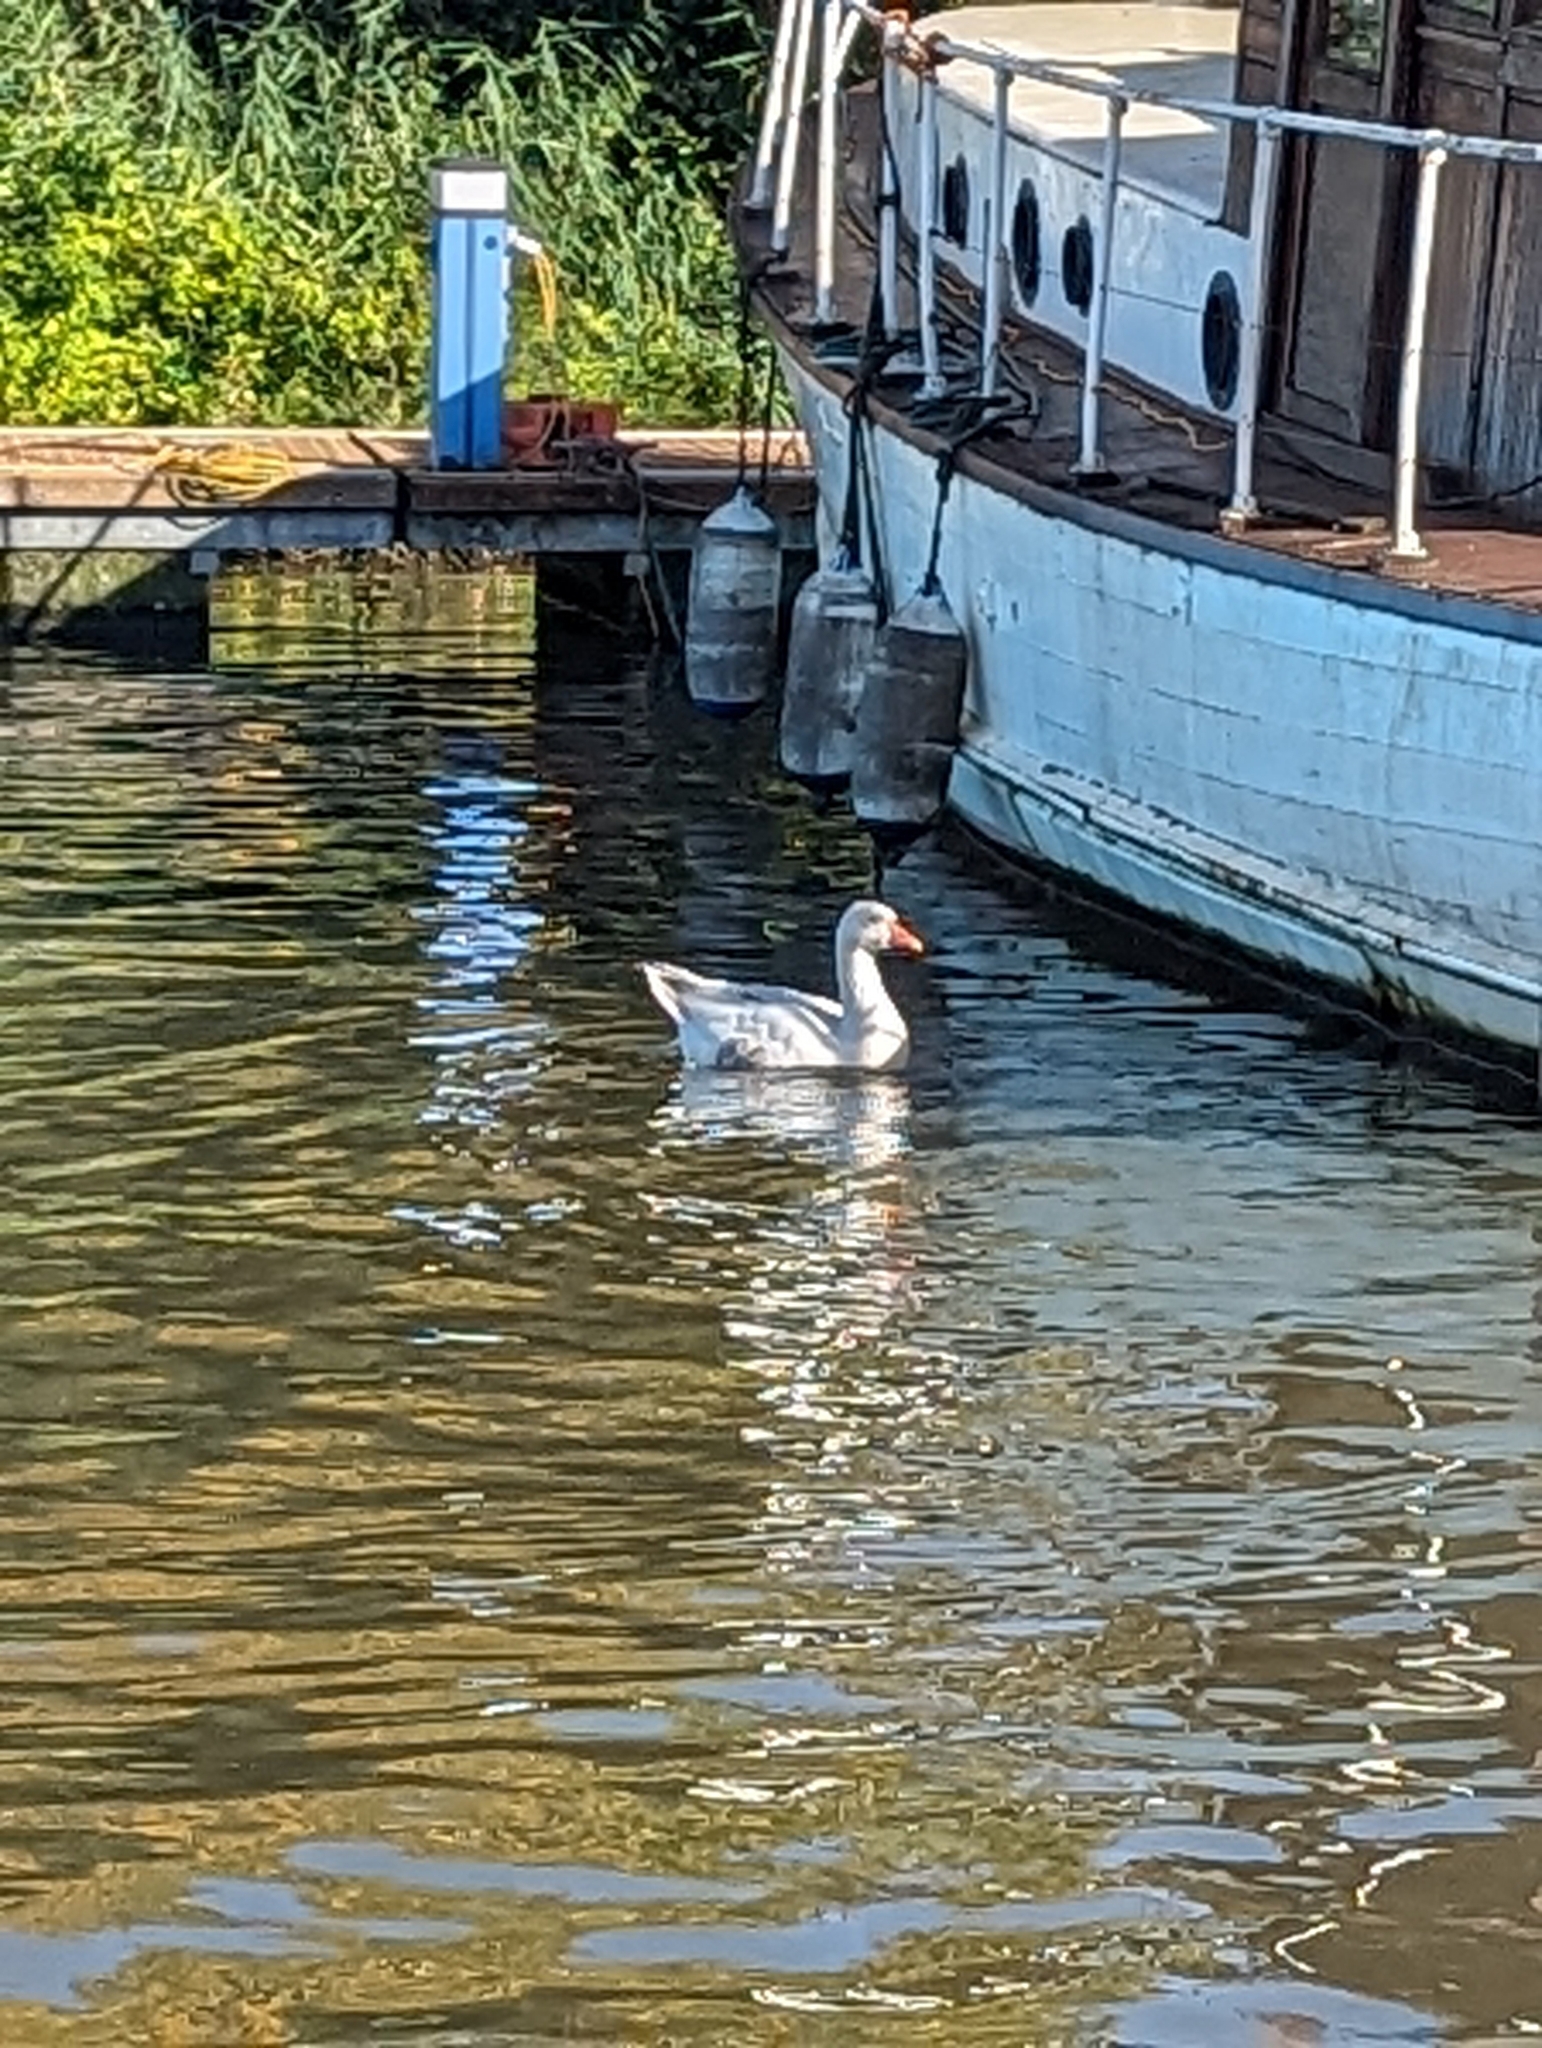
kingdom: Animalia
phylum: Chordata
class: Aves
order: Anseriformes
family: Anatidae
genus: Anser
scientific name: Anser anser
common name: Greylag goose
